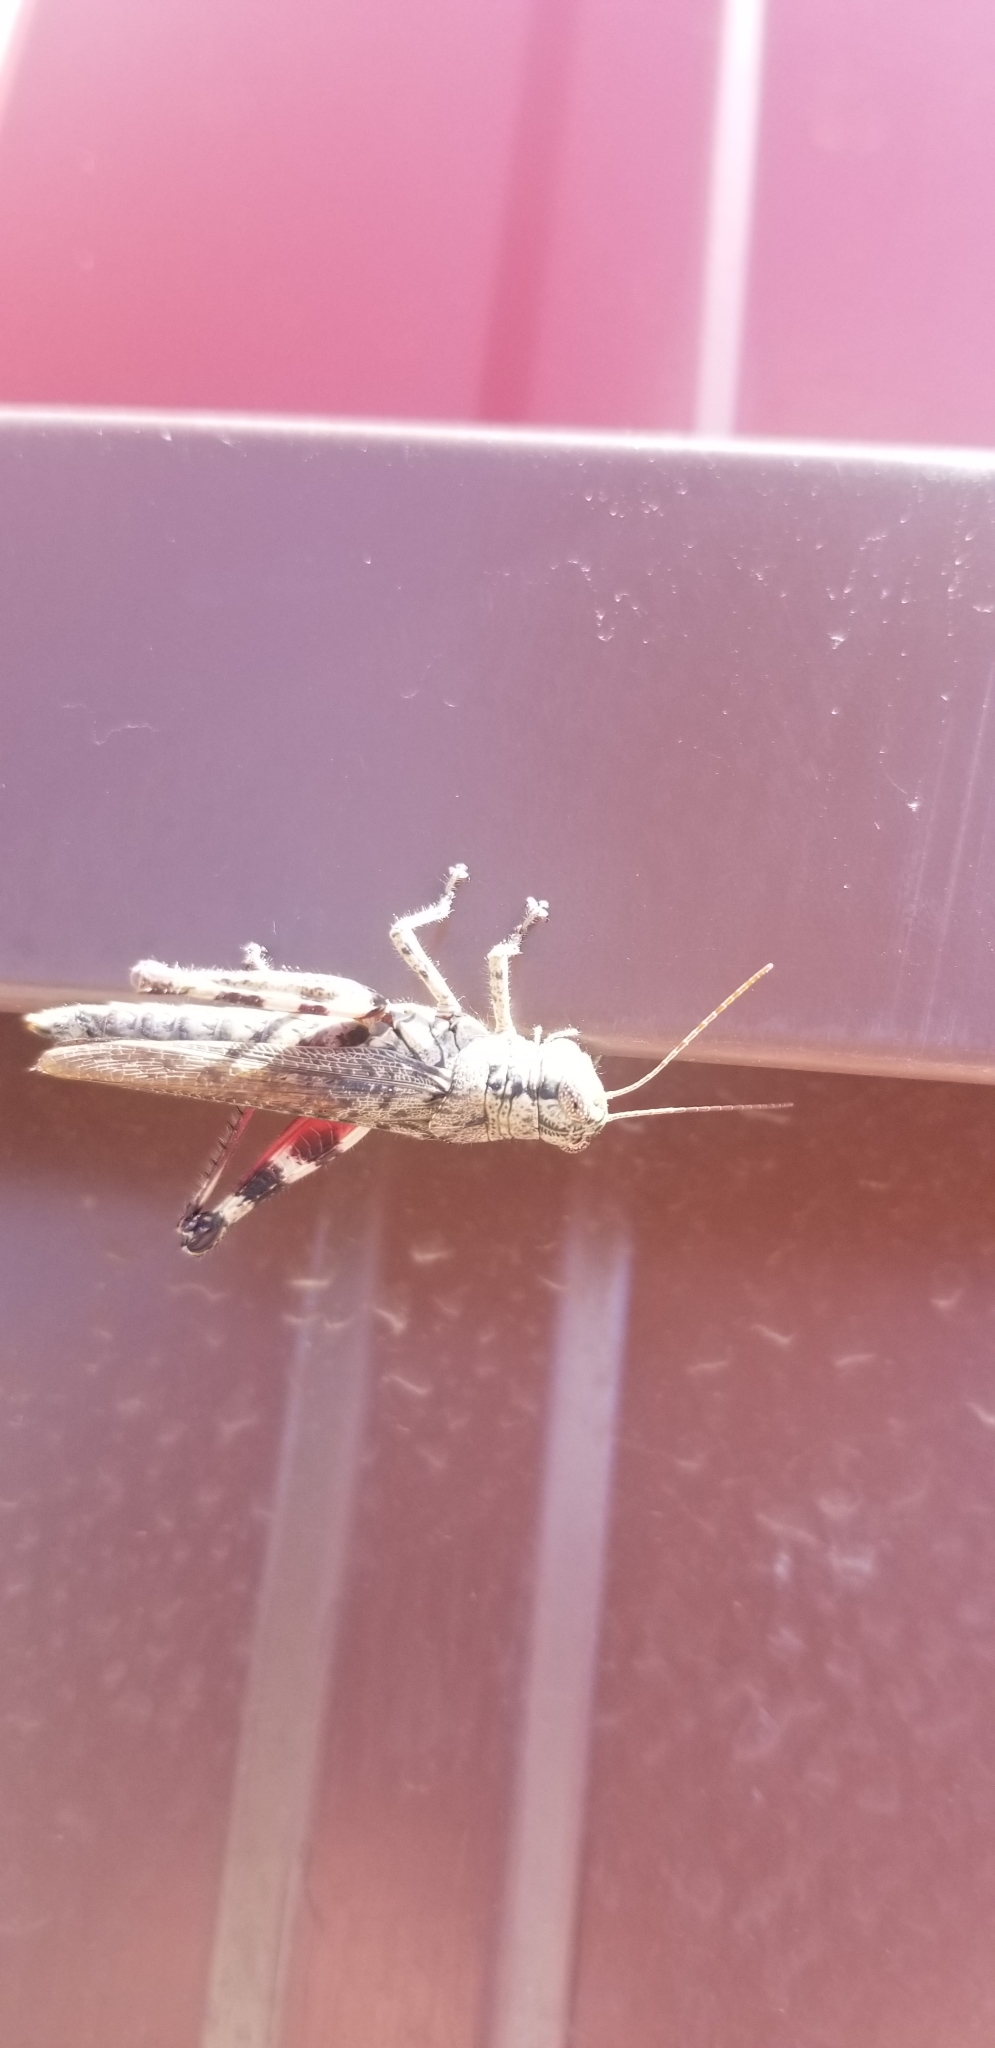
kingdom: Animalia
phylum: Arthropoda
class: Insecta
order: Orthoptera
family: Acrididae
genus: Melanoplus
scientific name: Melanoplus punctulatus
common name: Pine-tree spur-throat grasshopper
